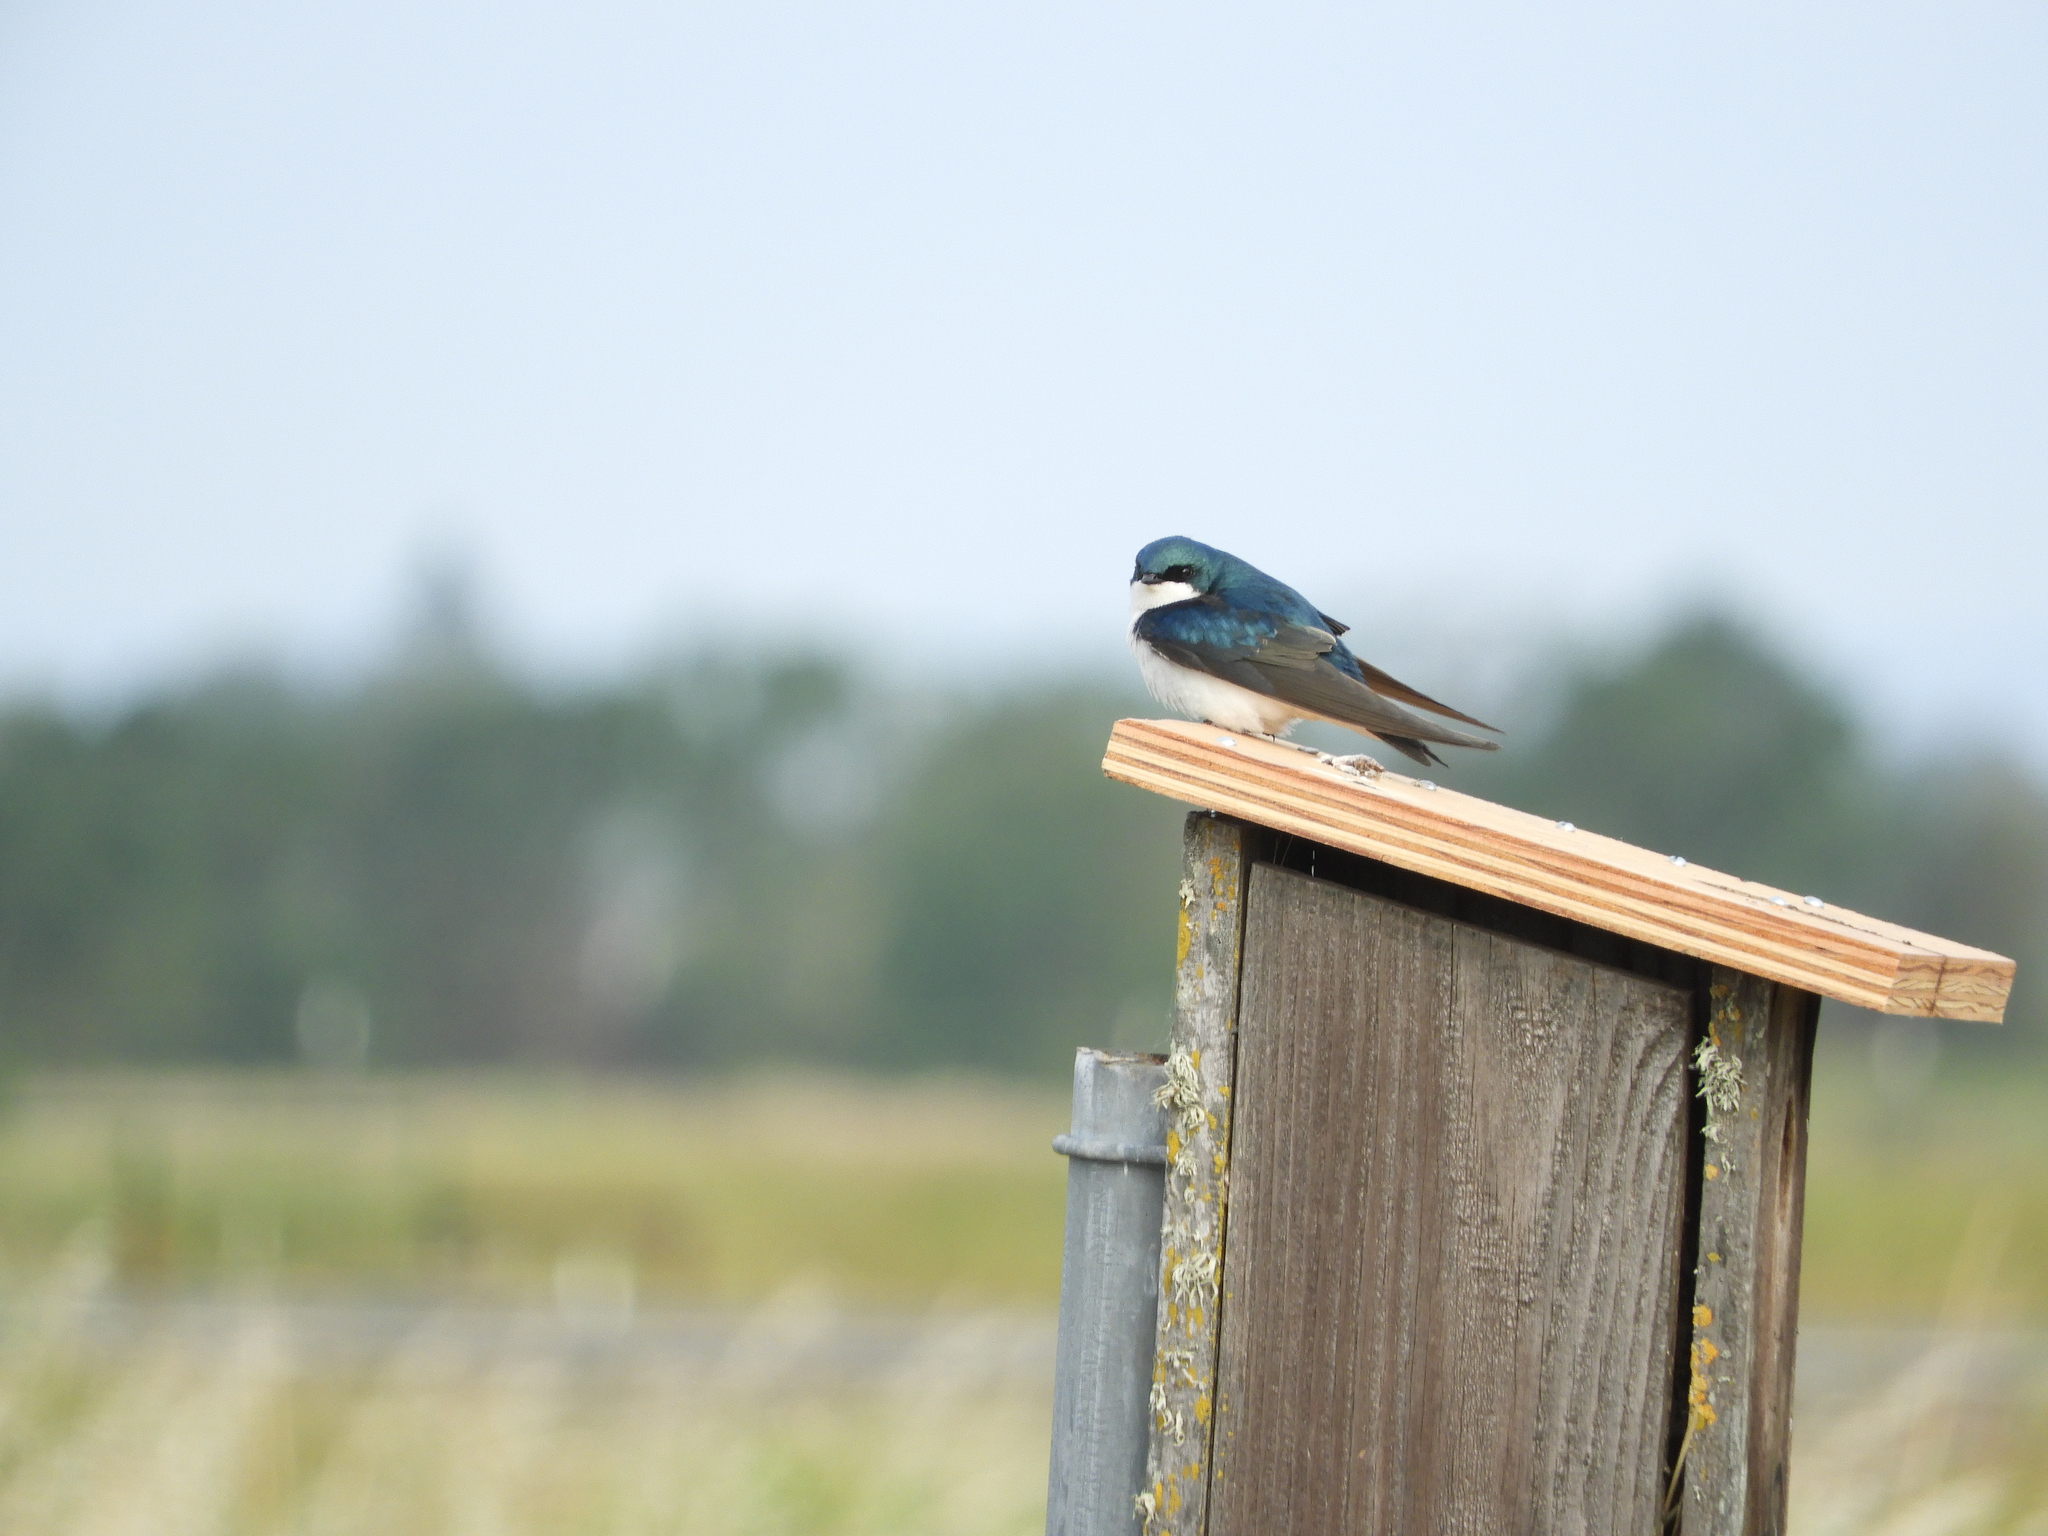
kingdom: Animalia
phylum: Chordata
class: Aves
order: Passeriformes
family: Hirundinidae
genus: Tachycineta
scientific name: Tachycineta bicolor
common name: Tree swallow
